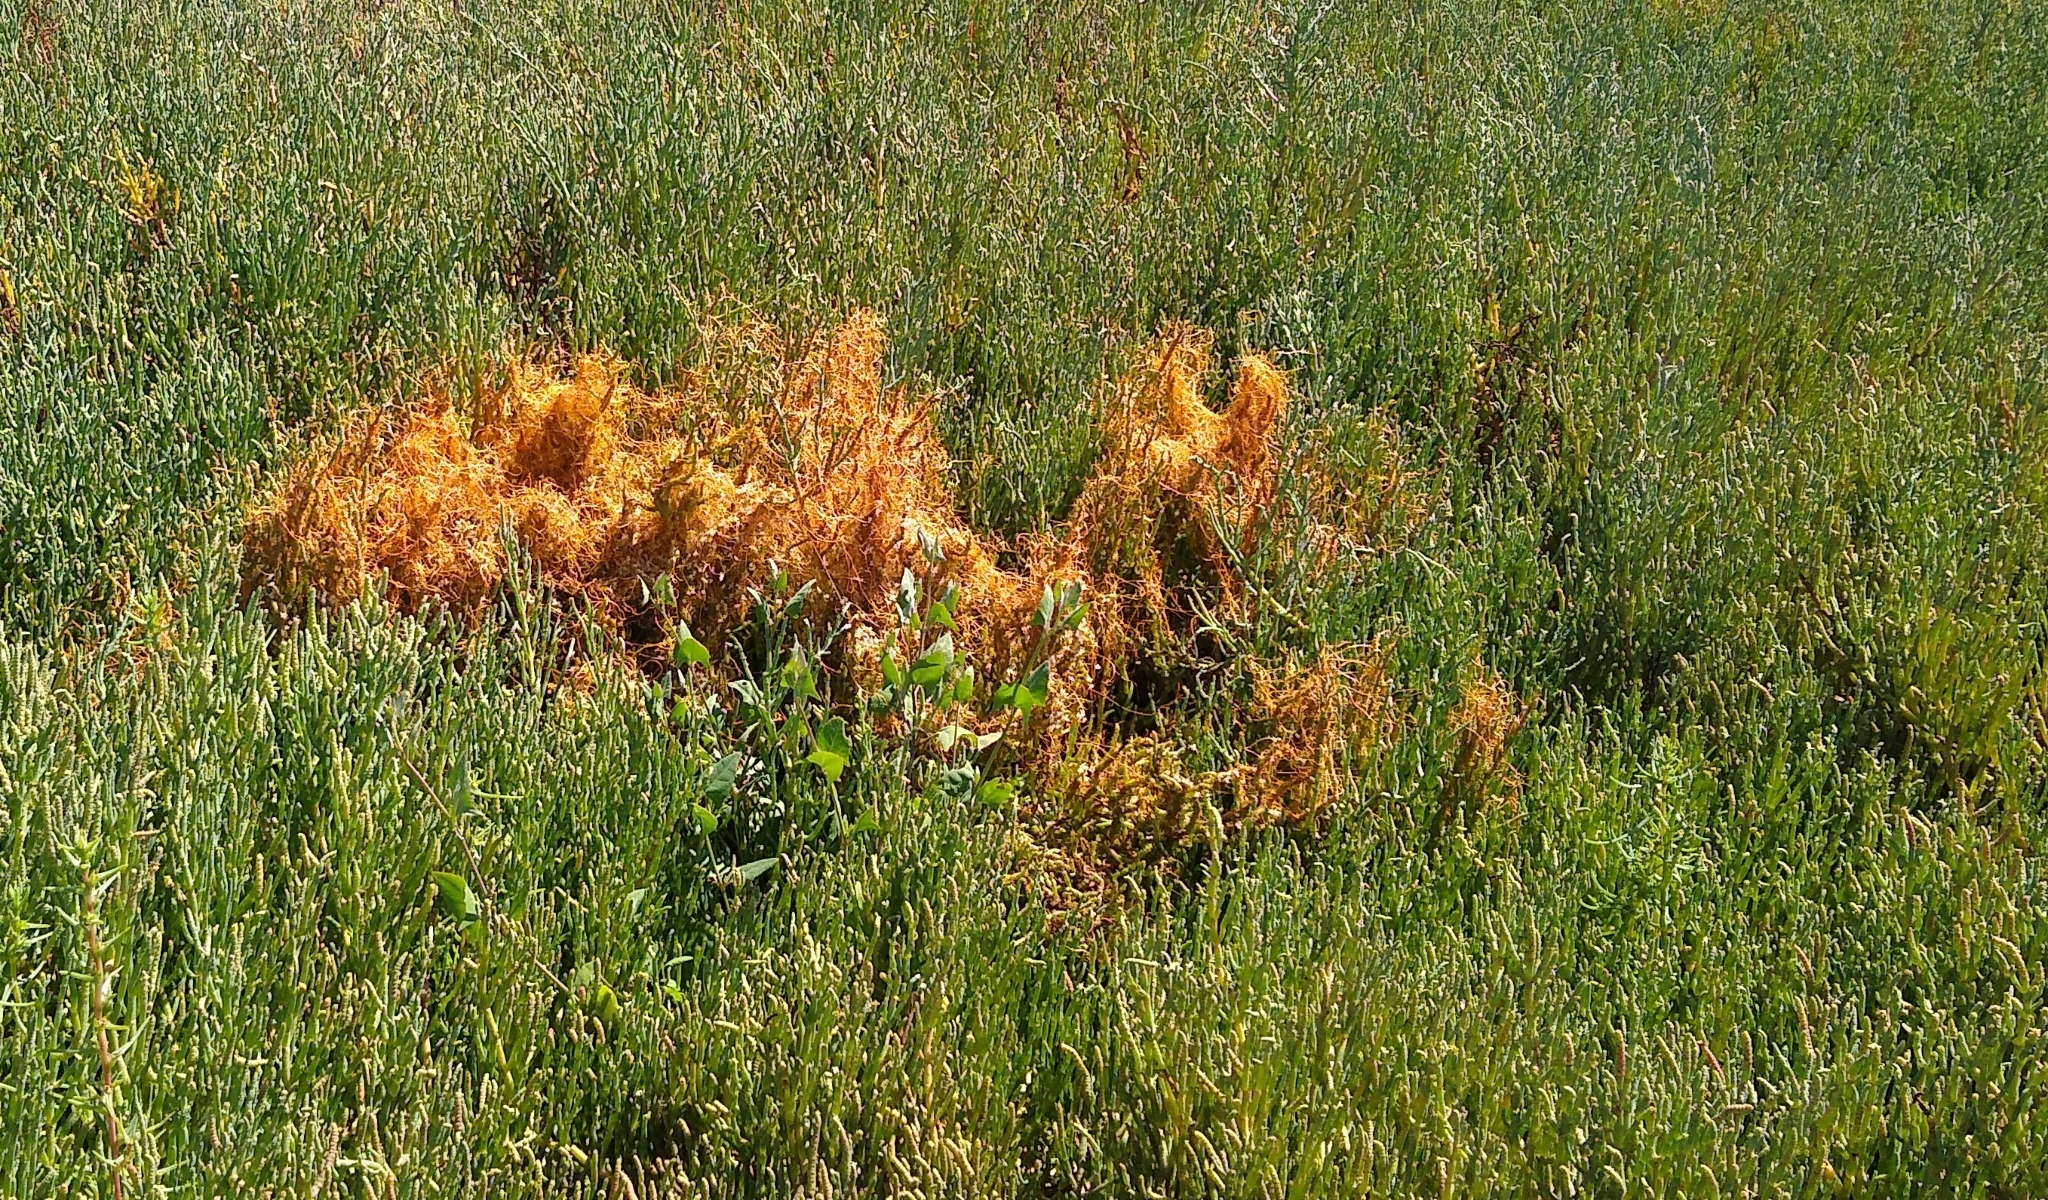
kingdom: Plantae
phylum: Tracheophyta
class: Magnoliopsida
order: Solanales
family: Convolvulaceae
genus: Cuscuta
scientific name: Cuscuta pacifica
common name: Large saltmarsh dodder
